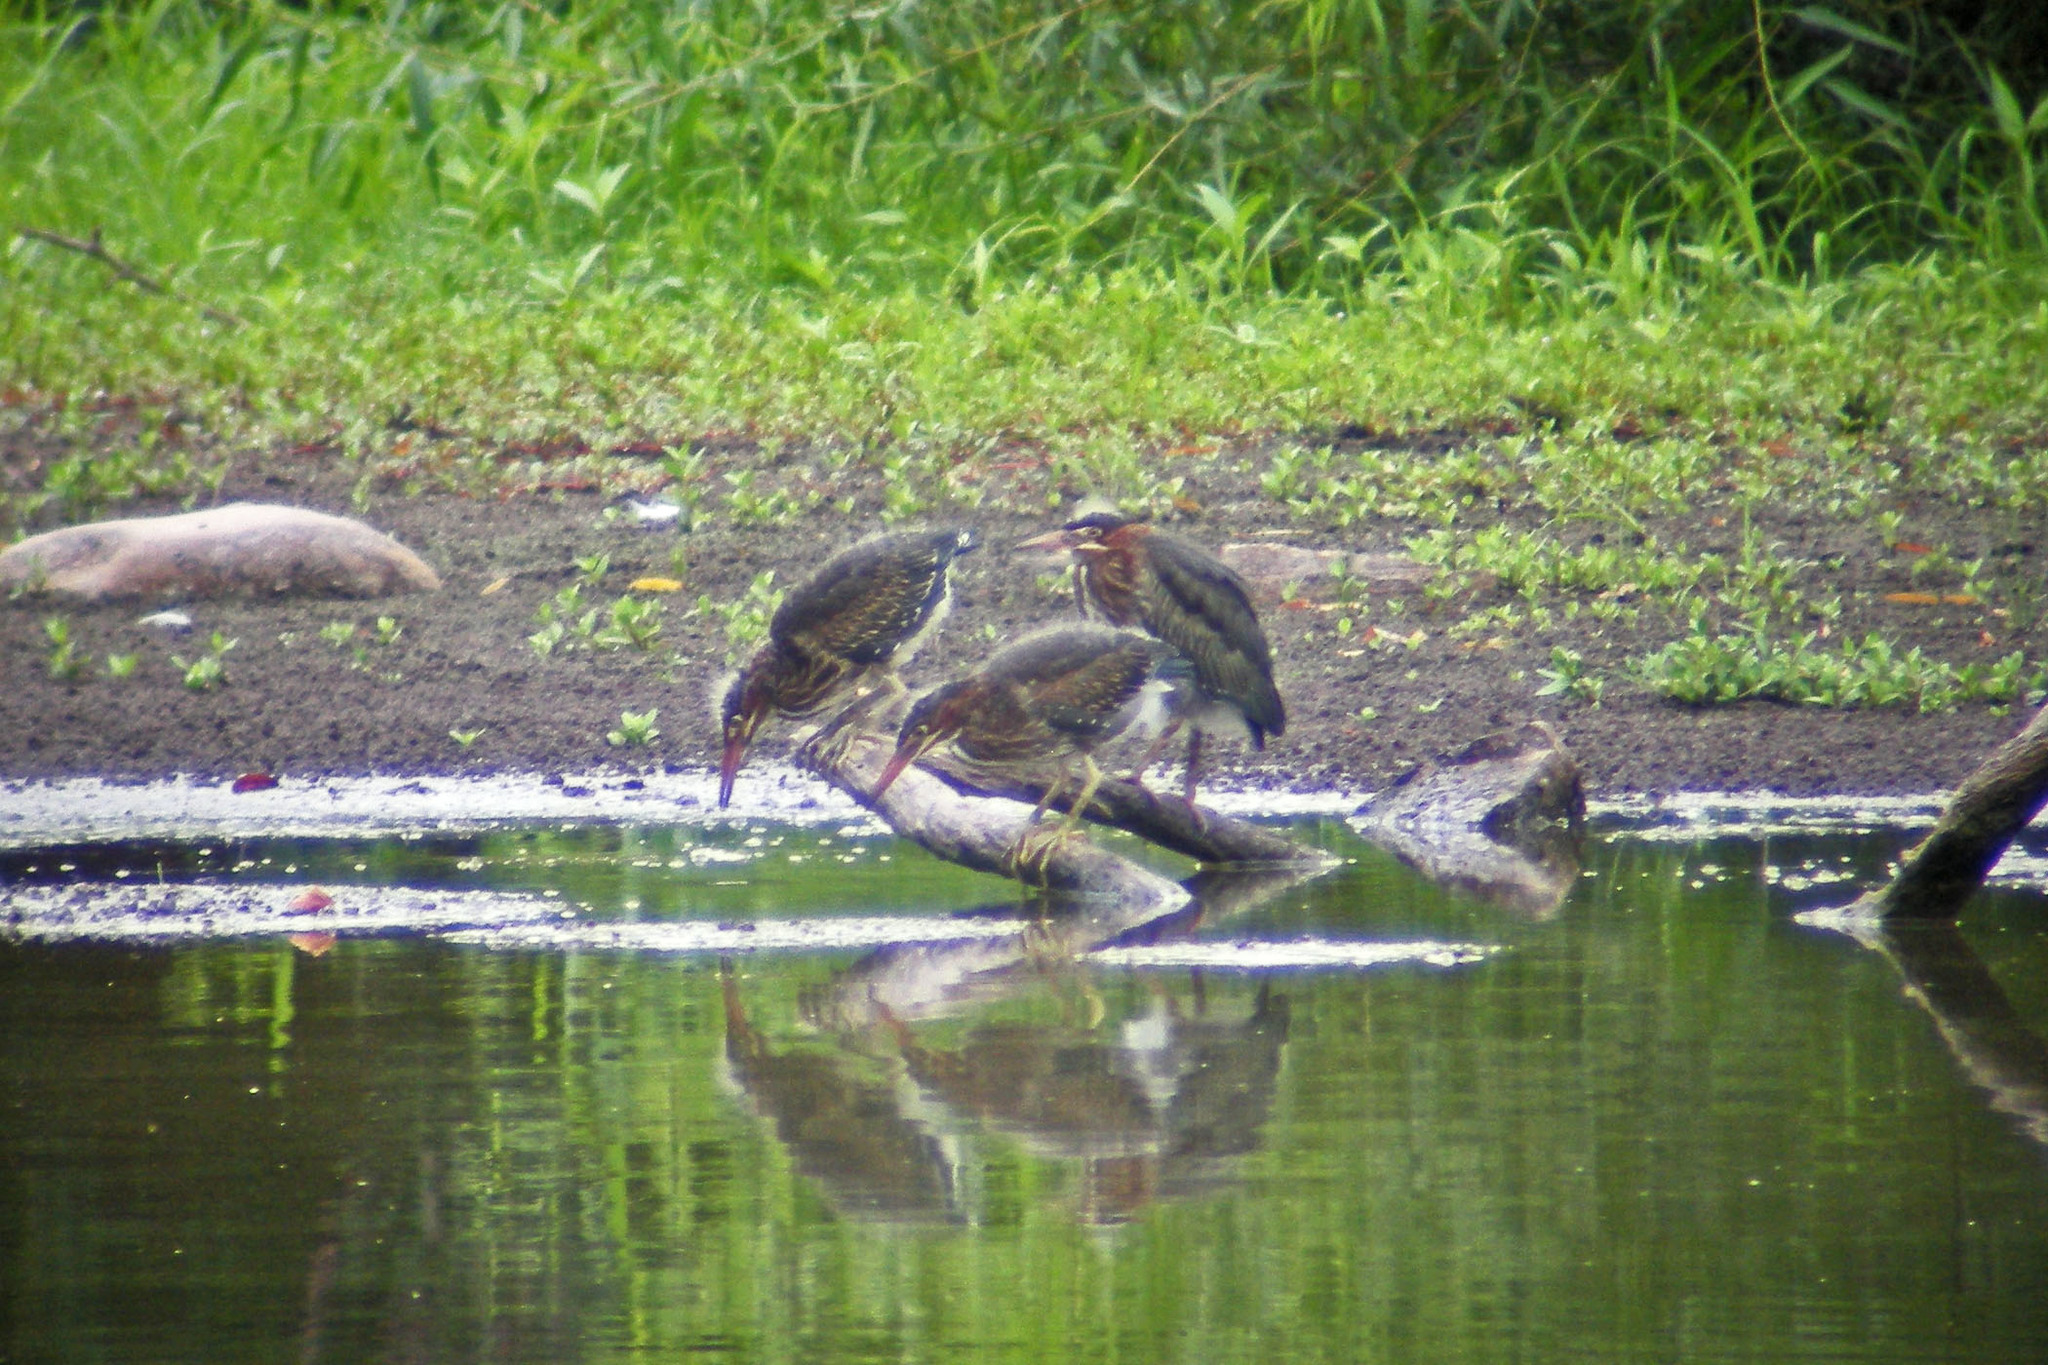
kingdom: Animalia
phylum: Chordata
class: Aves
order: Pelecaniformes
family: Ardeidae
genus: Butorides
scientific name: Butorides virescens
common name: Green heron
